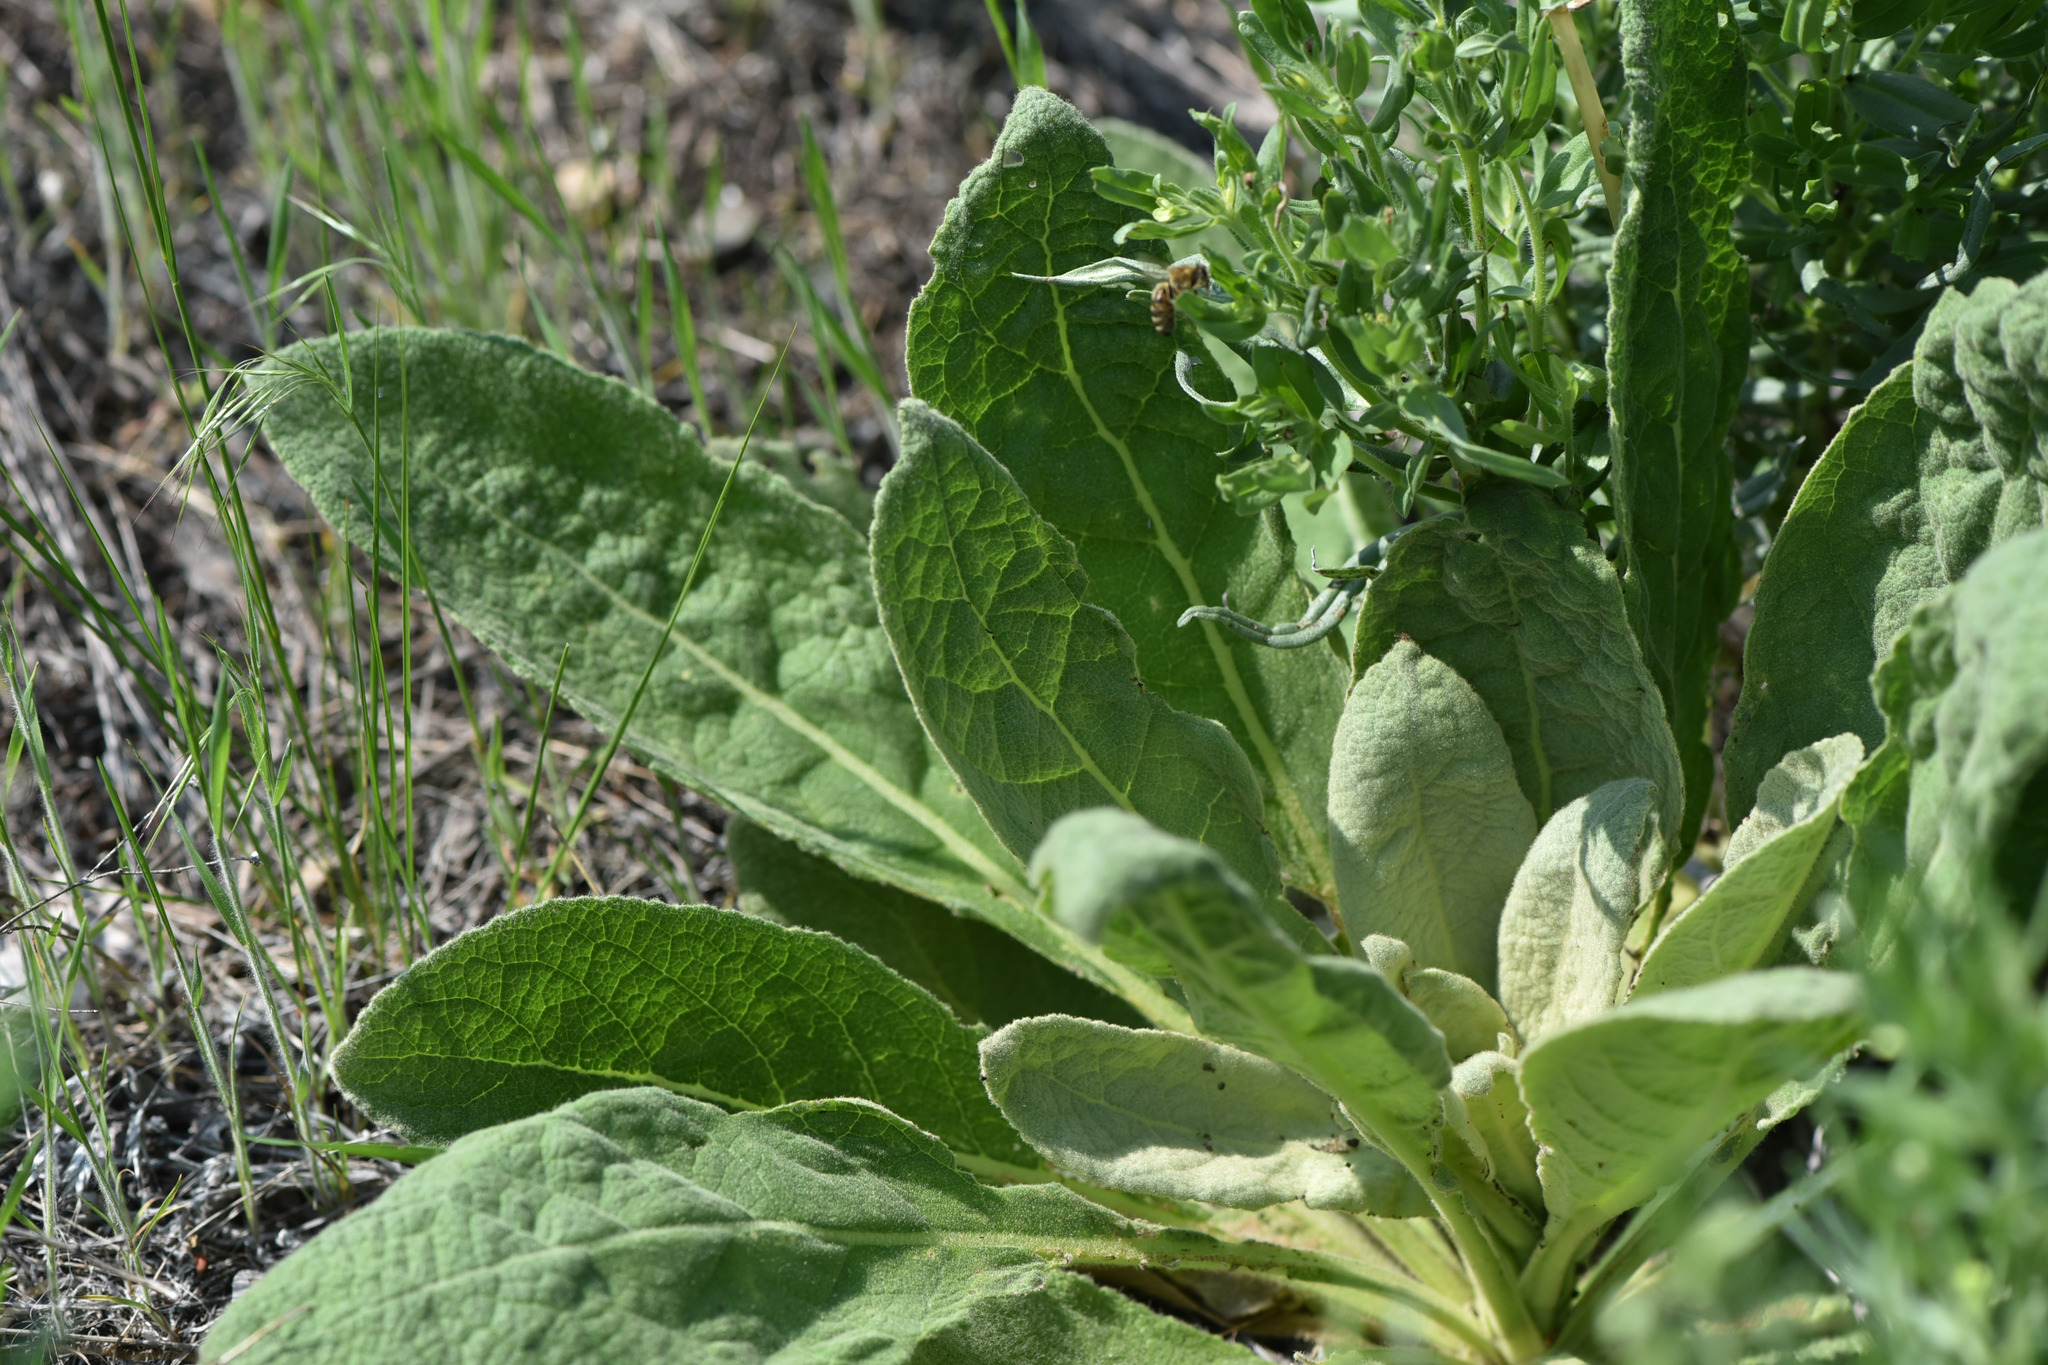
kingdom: Plantae
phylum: Tracheophyta
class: Magnoliopsida
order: Lamiales
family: Scrophulariaceae
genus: Verbascum
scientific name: Verbascum thapsus
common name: Common mullein
